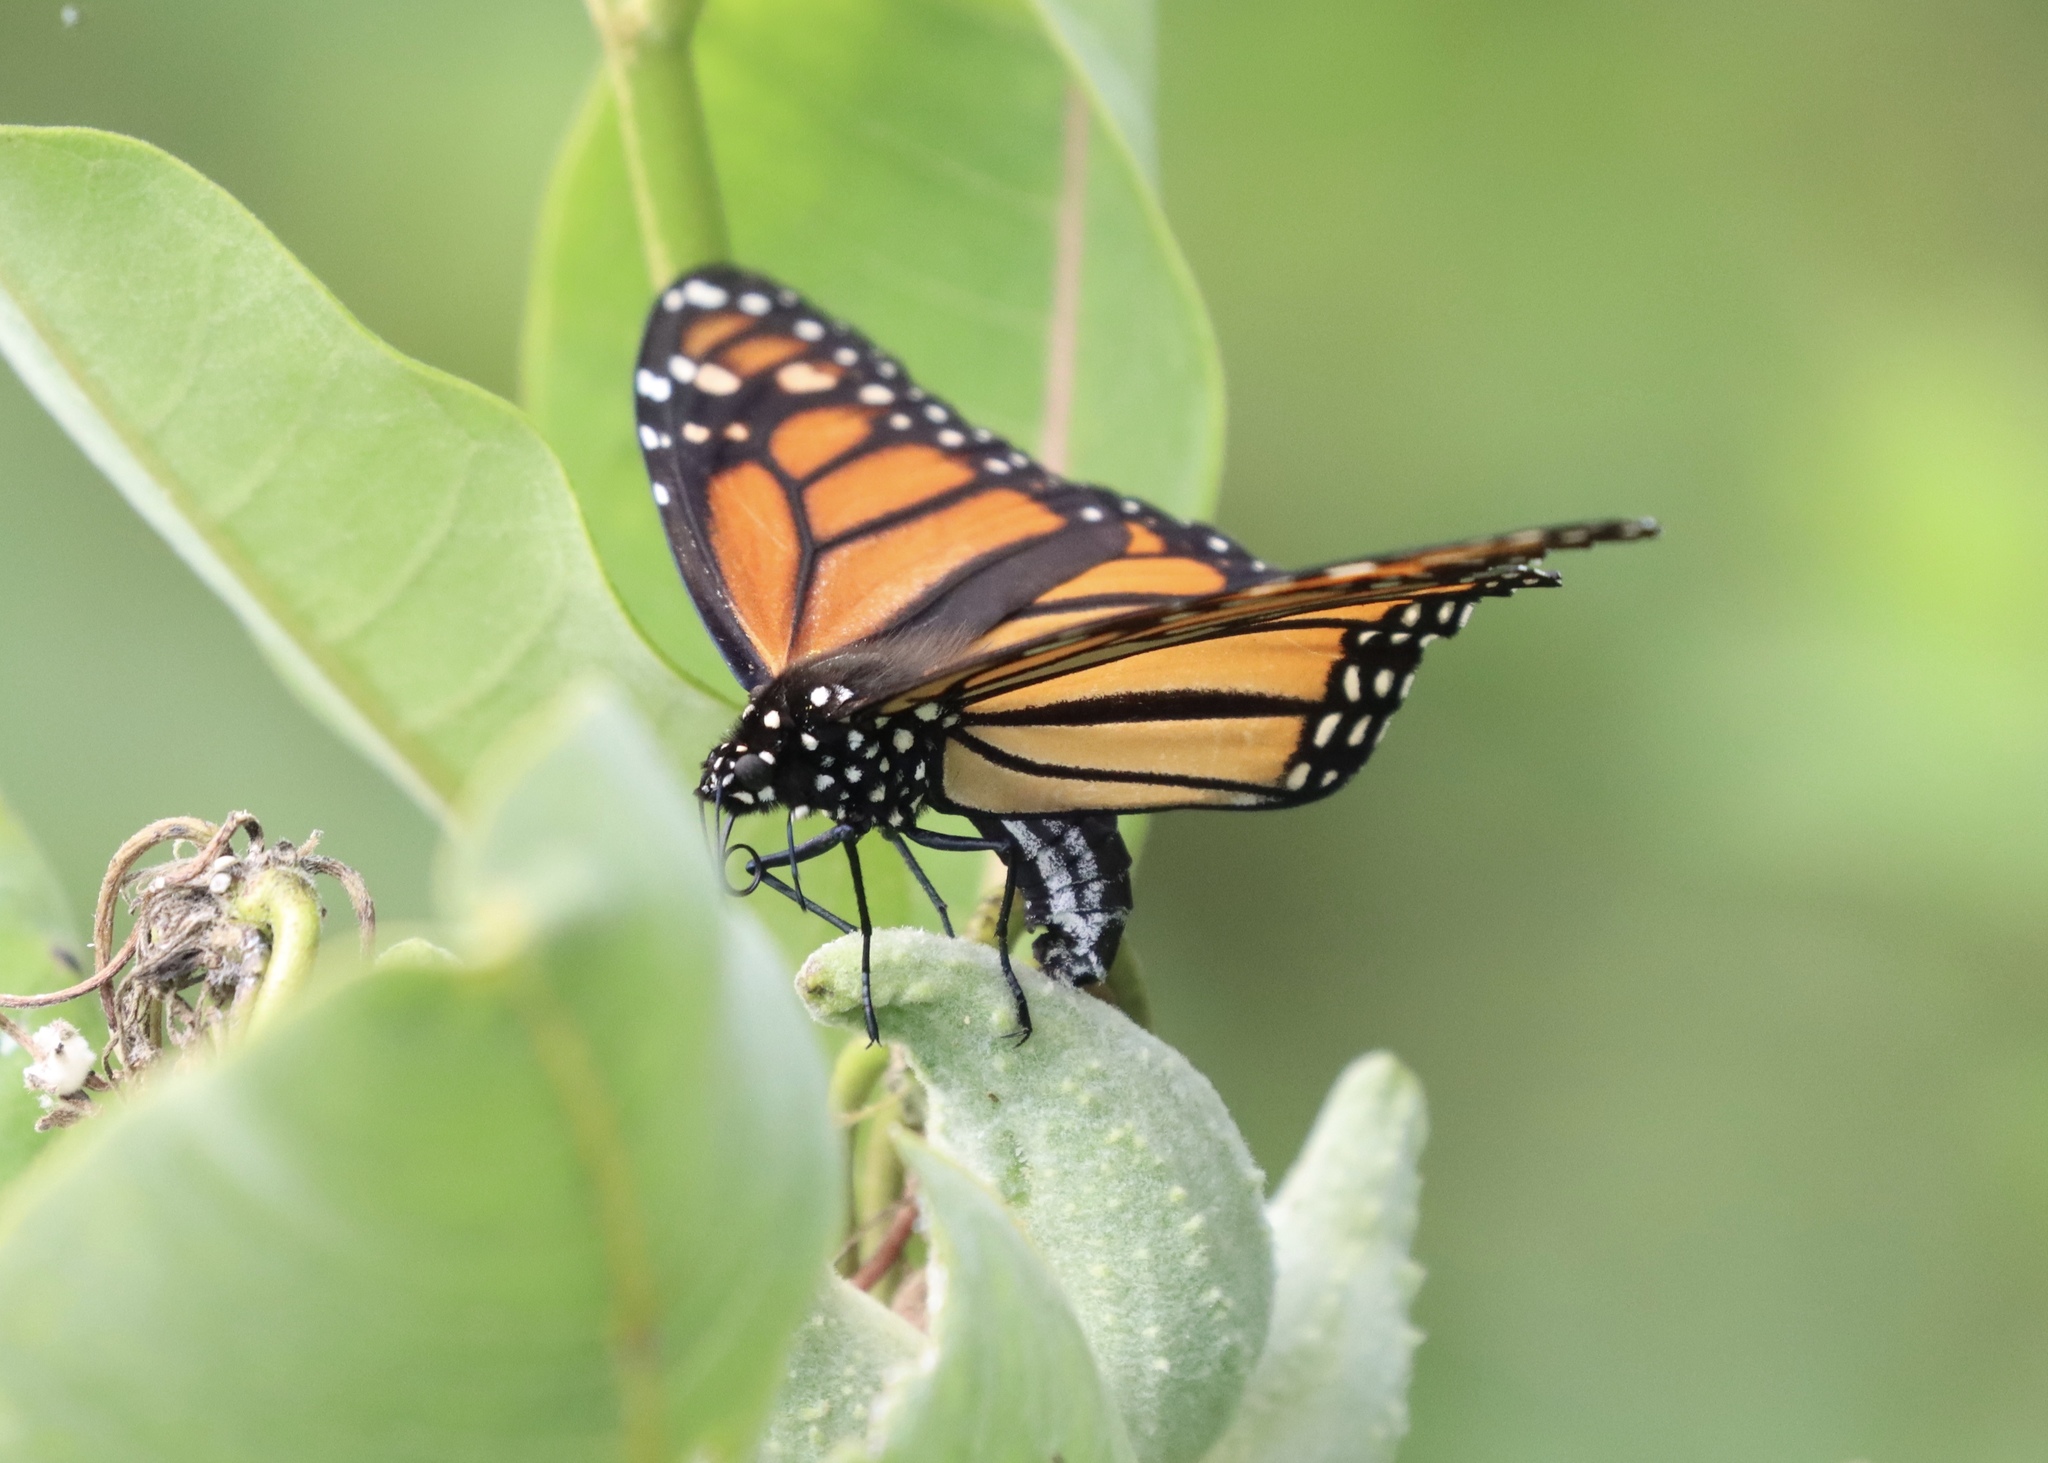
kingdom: Animalia
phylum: Arthropoda
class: Insecta
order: Lepidoptera
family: Nymphalidae
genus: Danaus
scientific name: Danaus plexippus
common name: Monarch
